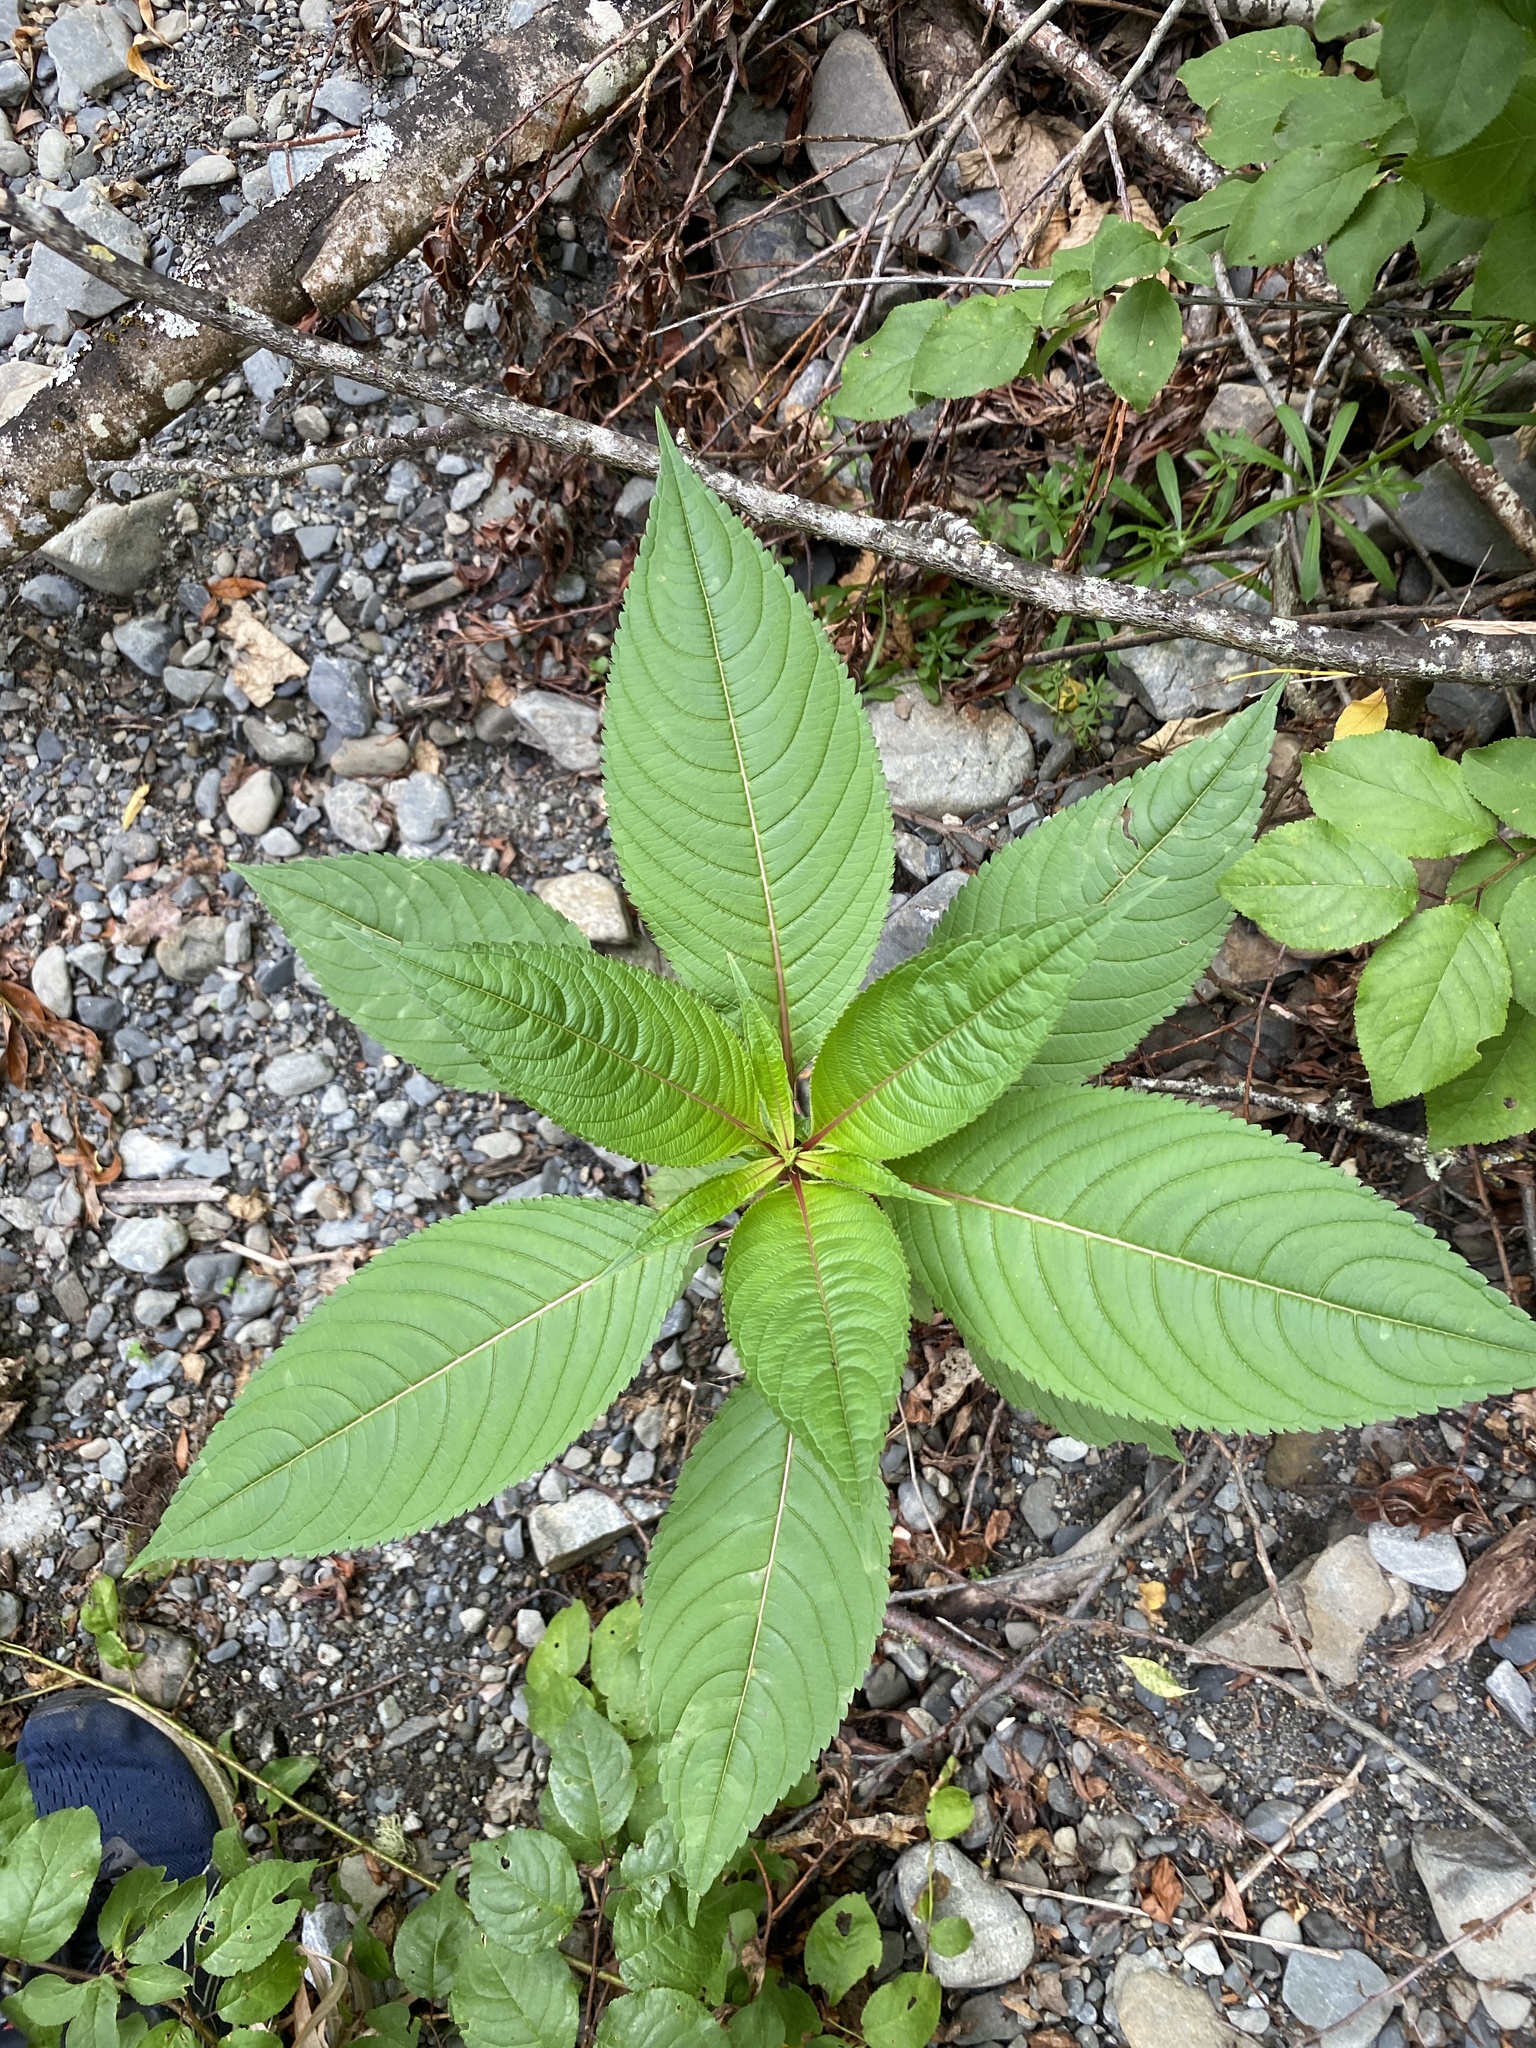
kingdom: Plantae
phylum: Tracheophyta
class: Magnoliopsida
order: Ericales
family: Balsaminaceae
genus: Impatiens
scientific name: Impatiens glandulifera
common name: Himalayan balsam
